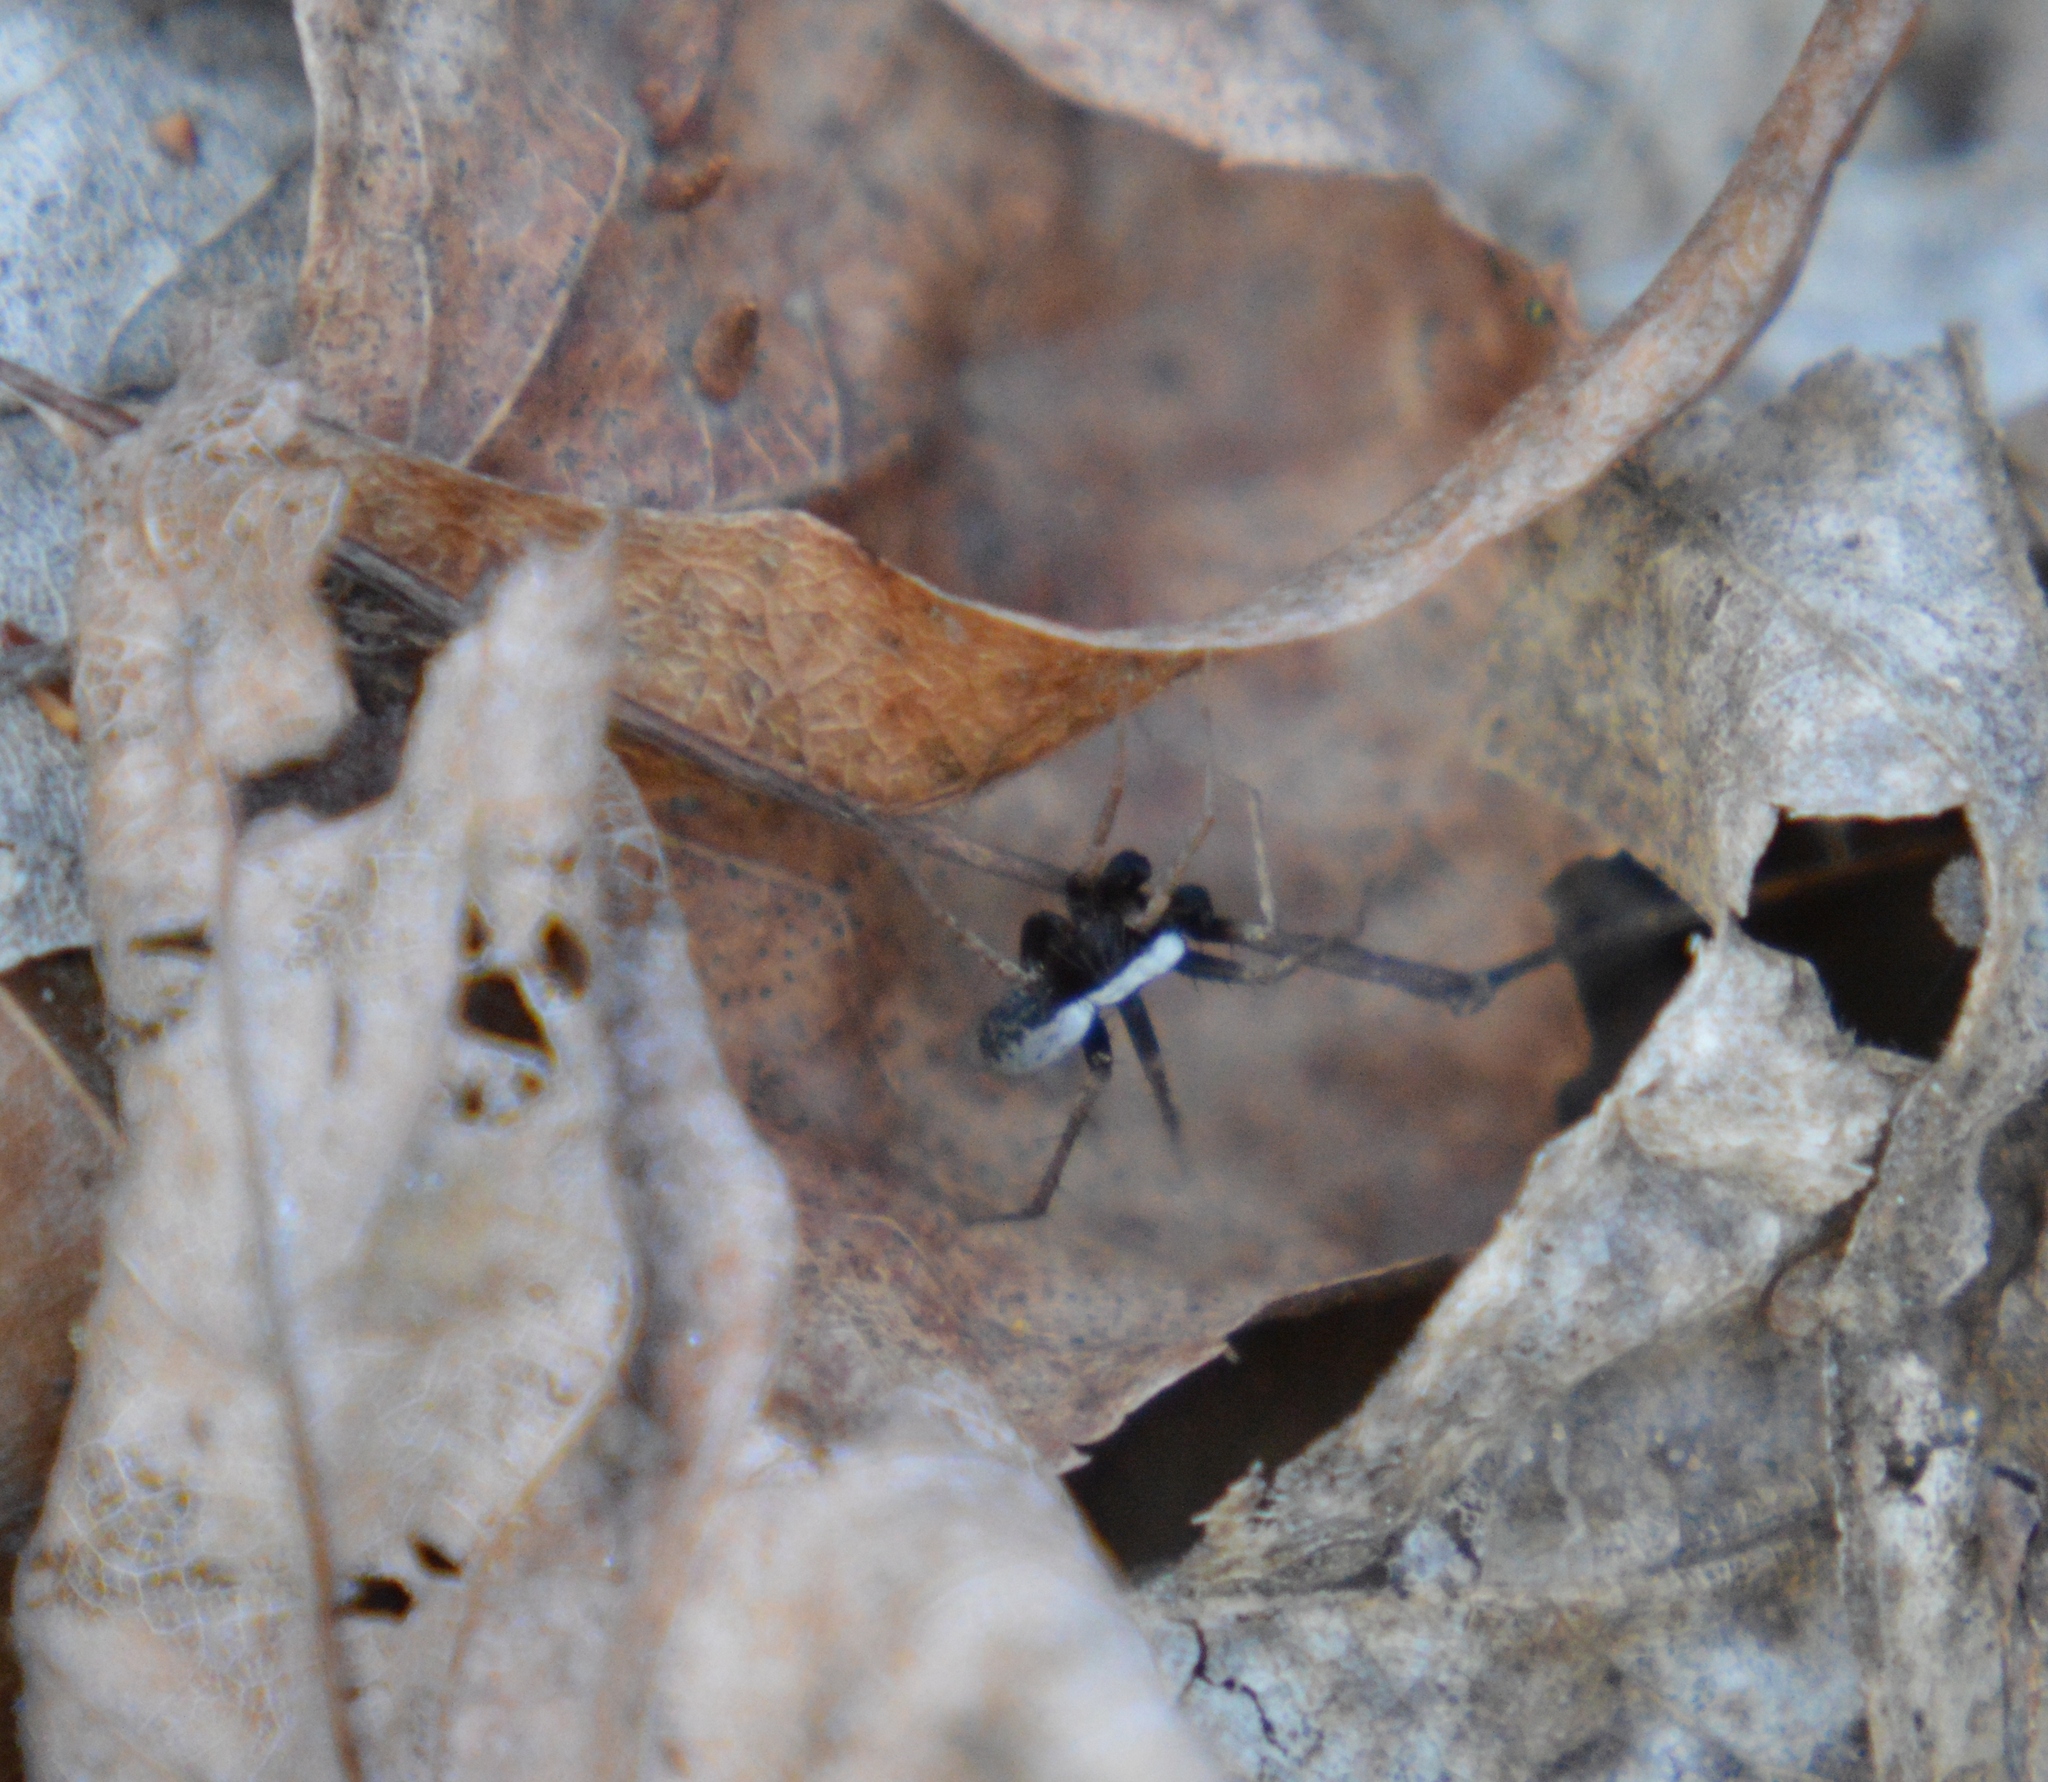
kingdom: Animalia
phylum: Arthropoda
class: Arachnida
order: Araneae
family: Lycosidae
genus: Pardosa
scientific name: Pardosa
